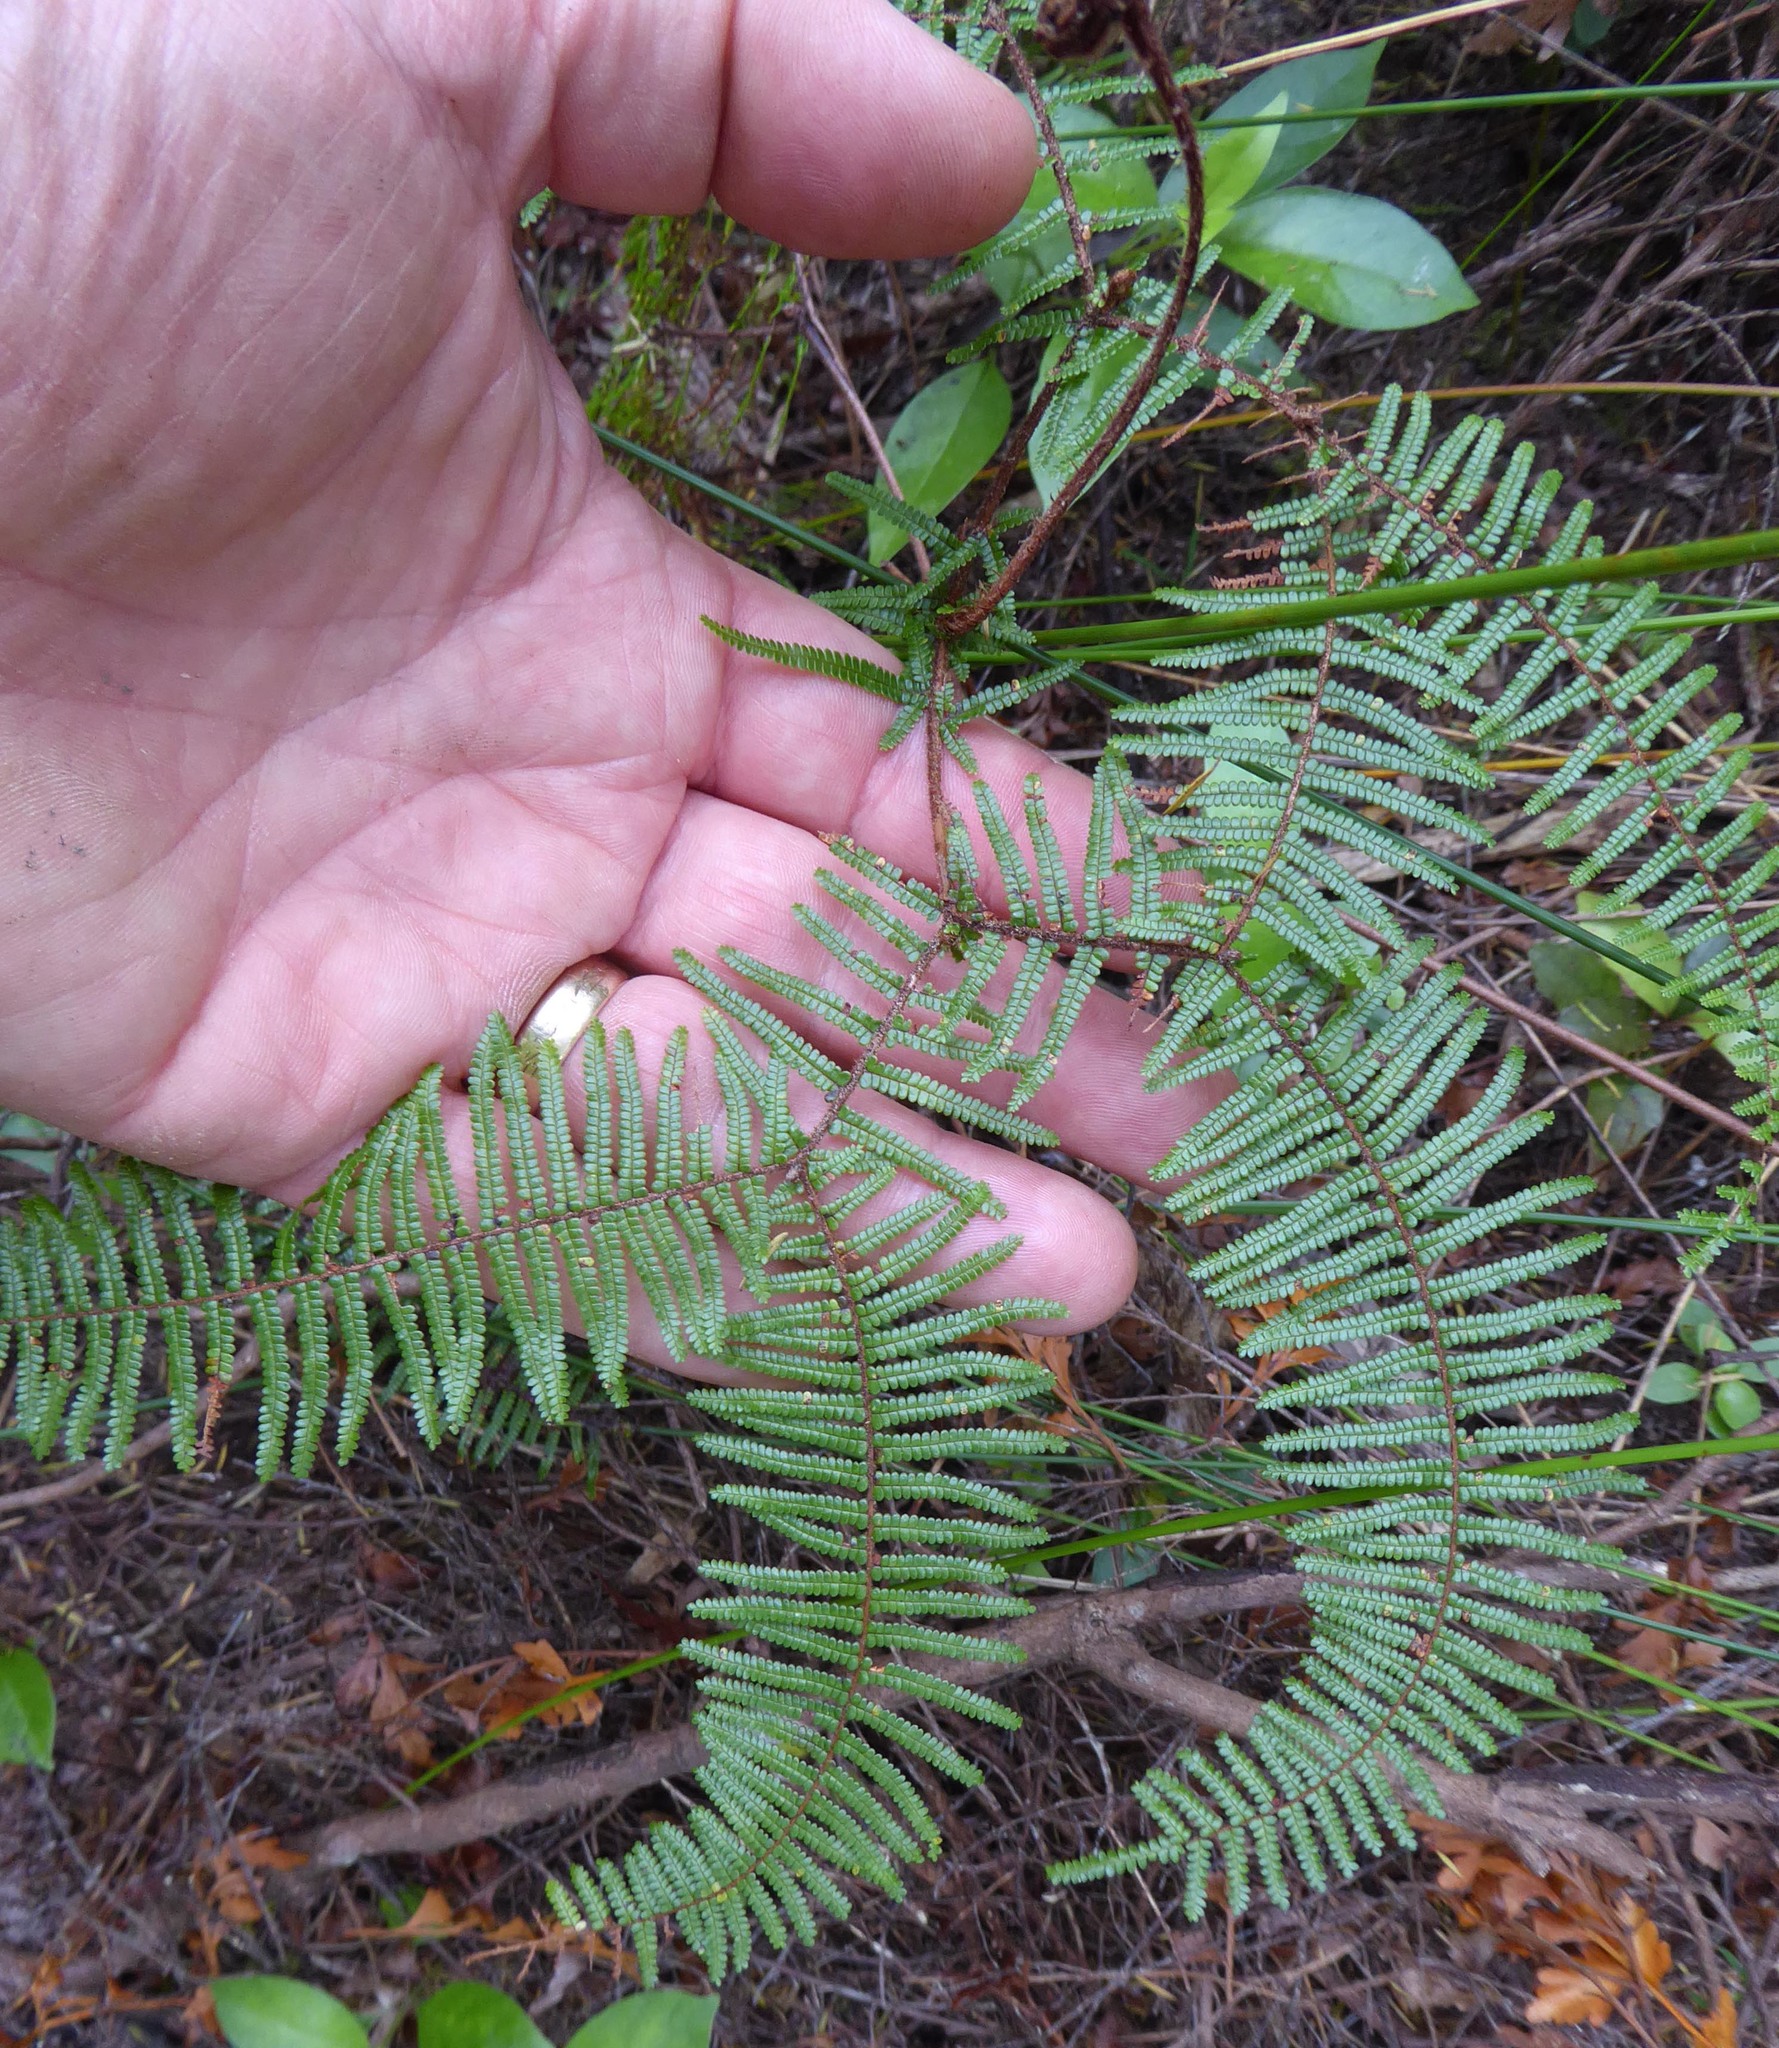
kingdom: Plantae
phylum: Tracheophyta
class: Polypodiopsida
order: Gleicheniales
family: Gleicheniaceae
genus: Gleichenia
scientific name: Gleichenia microphylla
